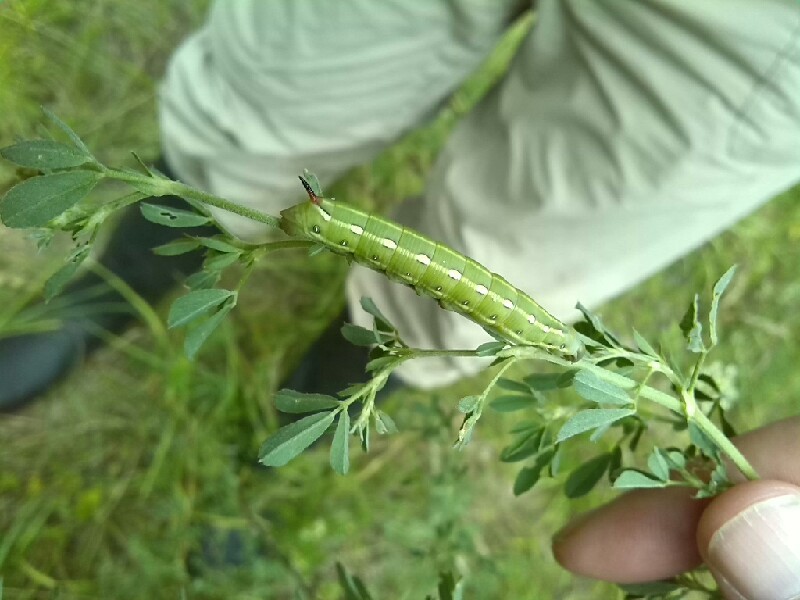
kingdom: Animalia
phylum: Arthropoda
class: Insecta
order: Lepidoptera
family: Sphingidae
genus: Hyles
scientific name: Hyles gallii
